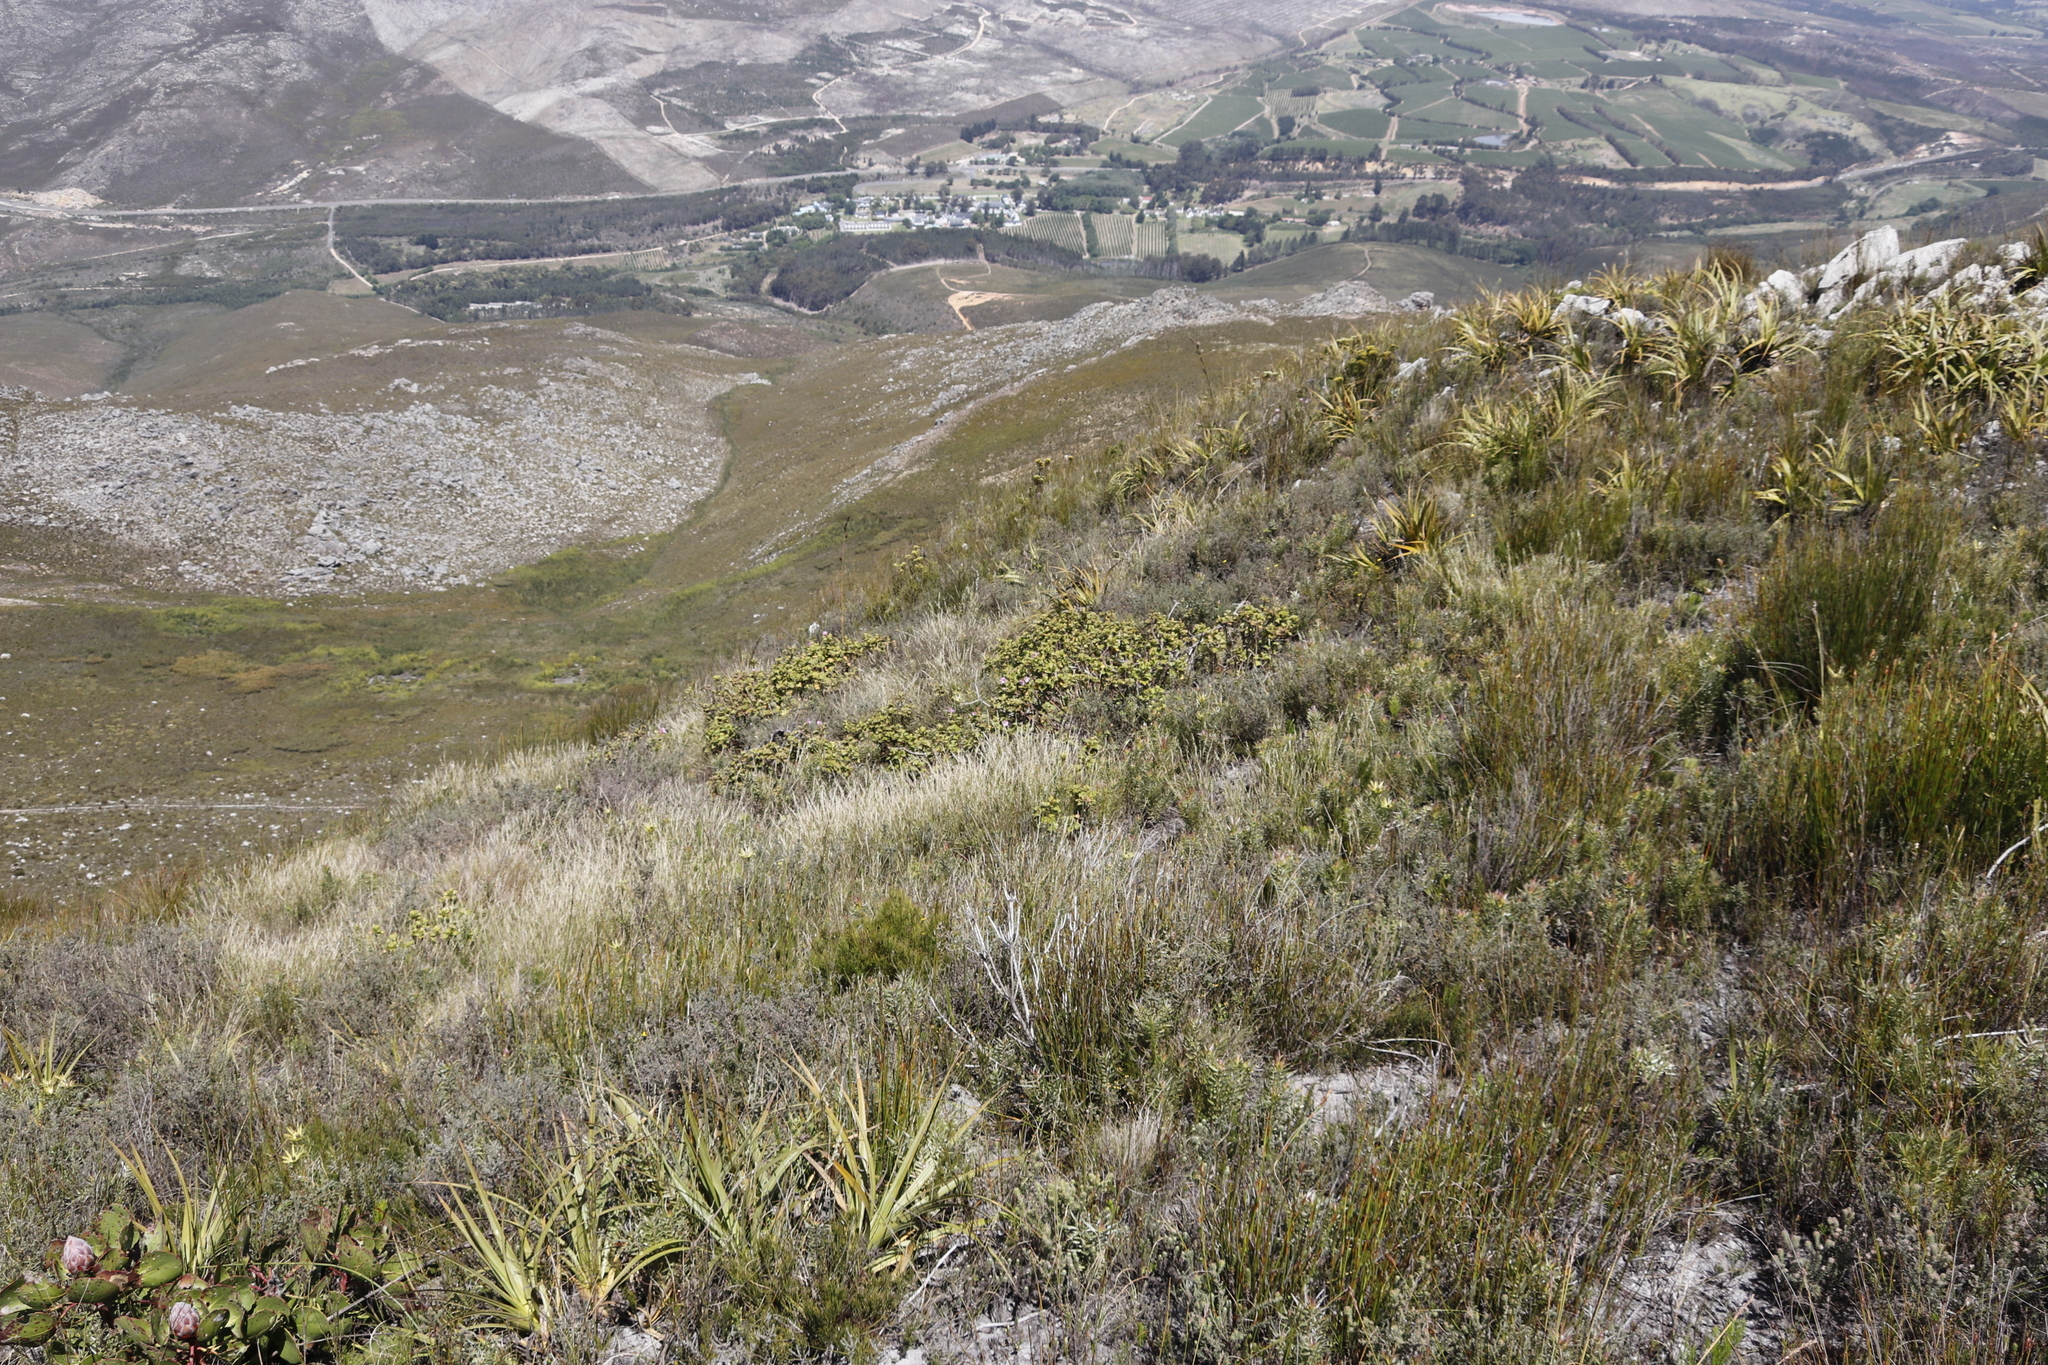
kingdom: Plantae
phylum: Tracheophyta
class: Magnoliopsida
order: Geraniales
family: Geraniaceae
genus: Pelargonium
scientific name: Pelargonium cucullatum
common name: Tree pelargonium
